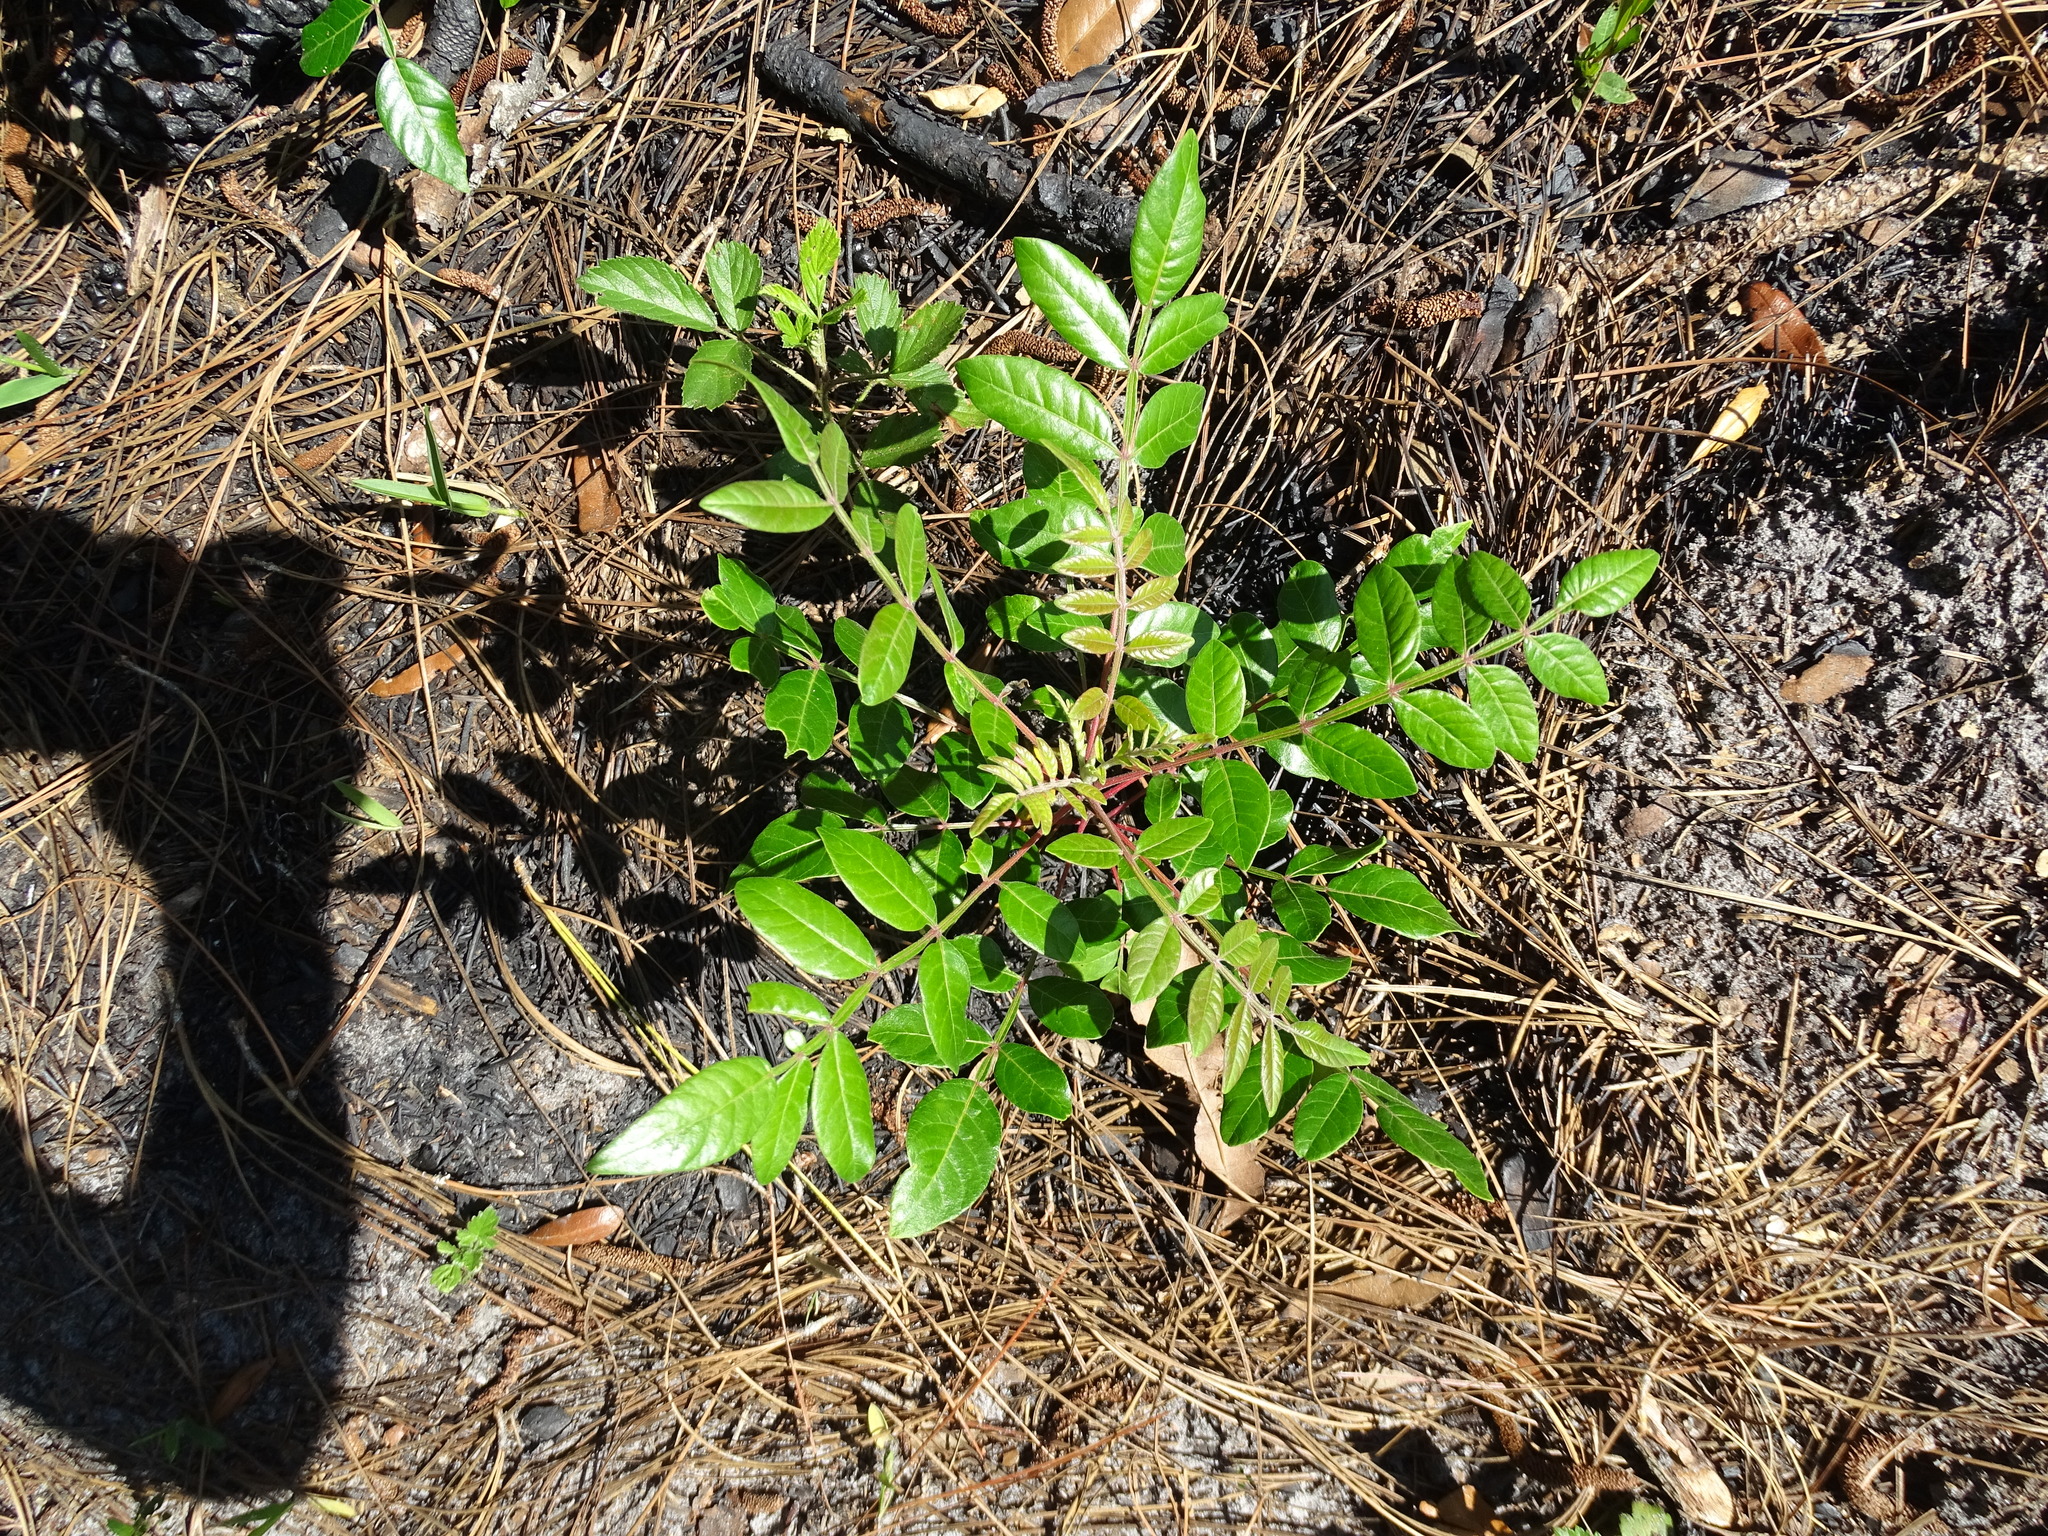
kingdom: Plantae
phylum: Tracheophyta
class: Magnoliopsida
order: Sapindales
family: Anacardiaceae
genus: Rhus
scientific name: Rhus copallina
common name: Shining sumac
